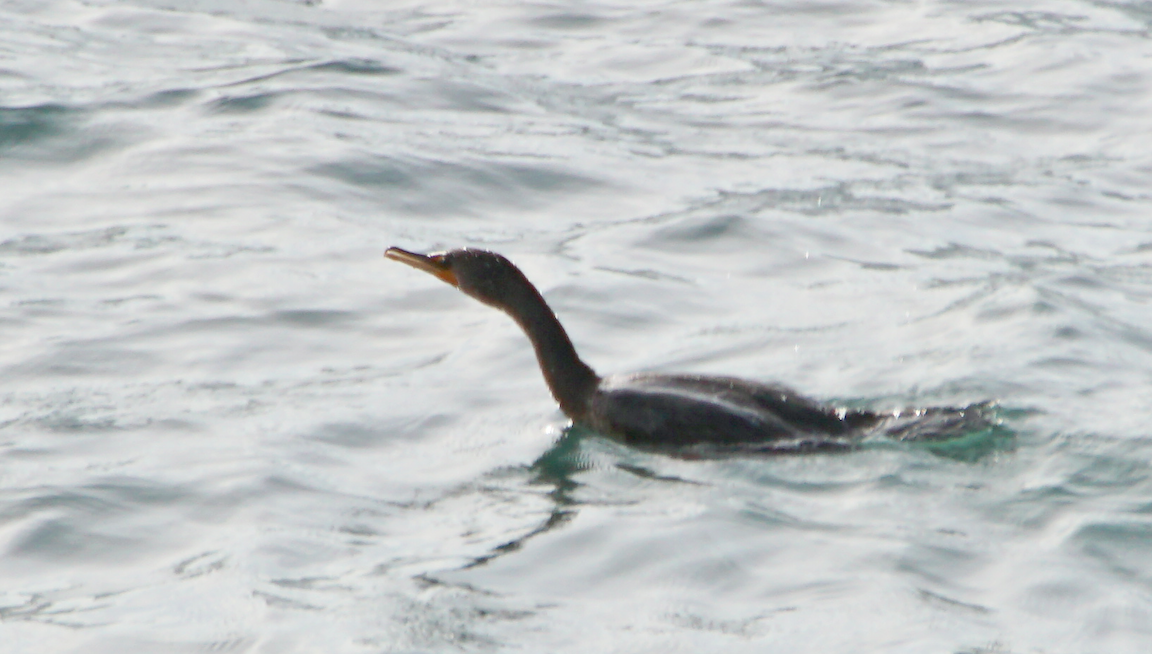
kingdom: Animalia
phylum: Chordata
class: Aves
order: Suliformes
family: Phalacrocoracidae
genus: Phalacrocorax
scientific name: Phalacrocorax auritus
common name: Double-crested cormorant
